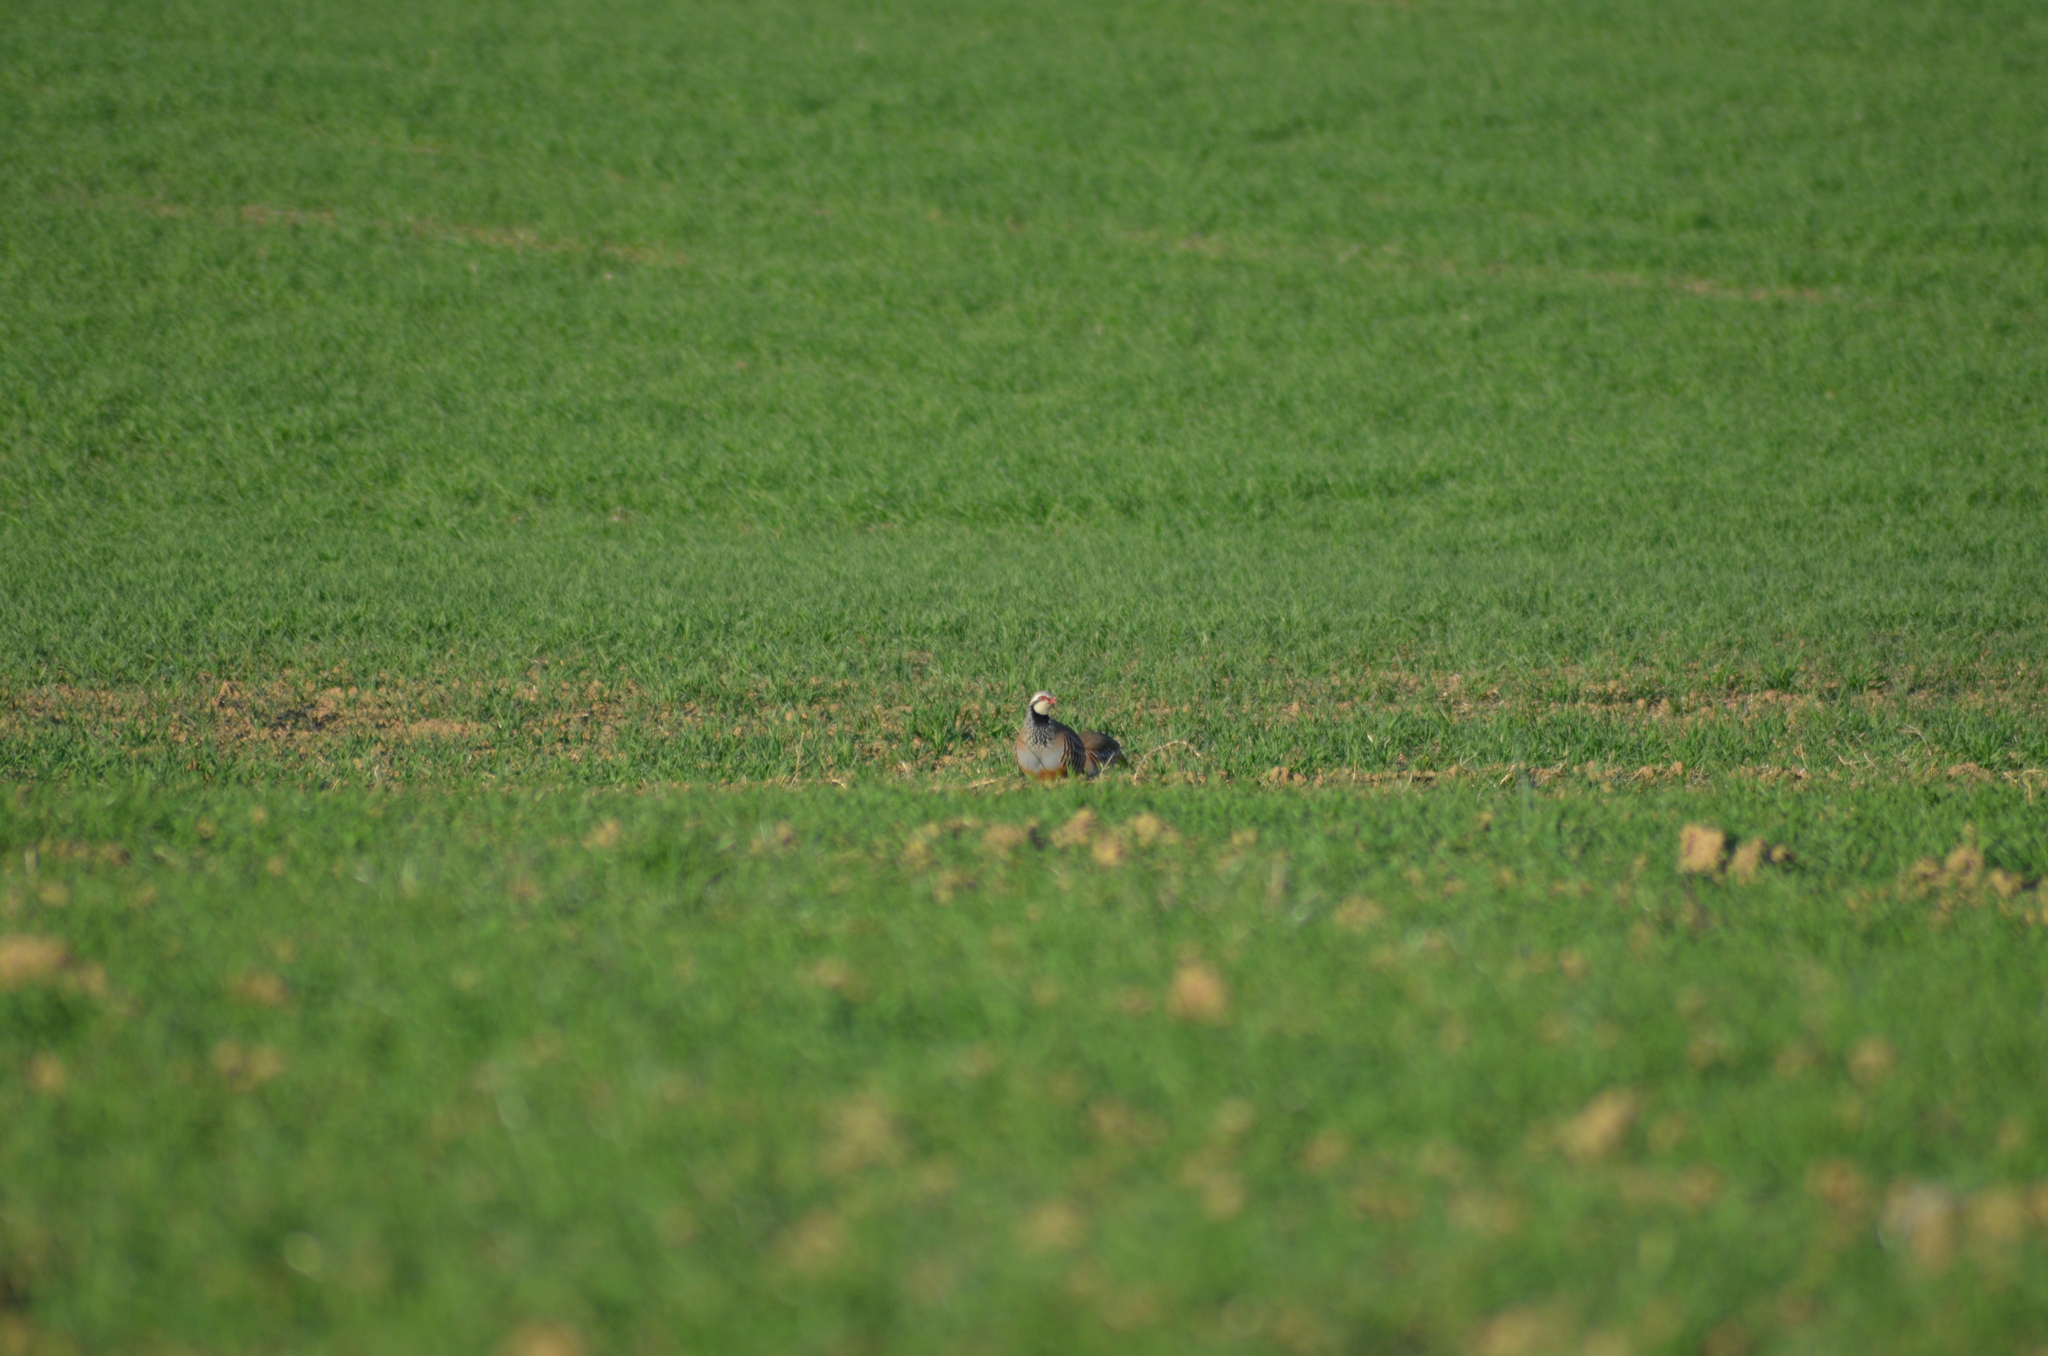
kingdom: Animalia
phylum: Chordata
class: Aves
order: Galliformes
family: Phasianidae
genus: Alectoris
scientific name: Alectoris rufa
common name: Red-legged partridge
